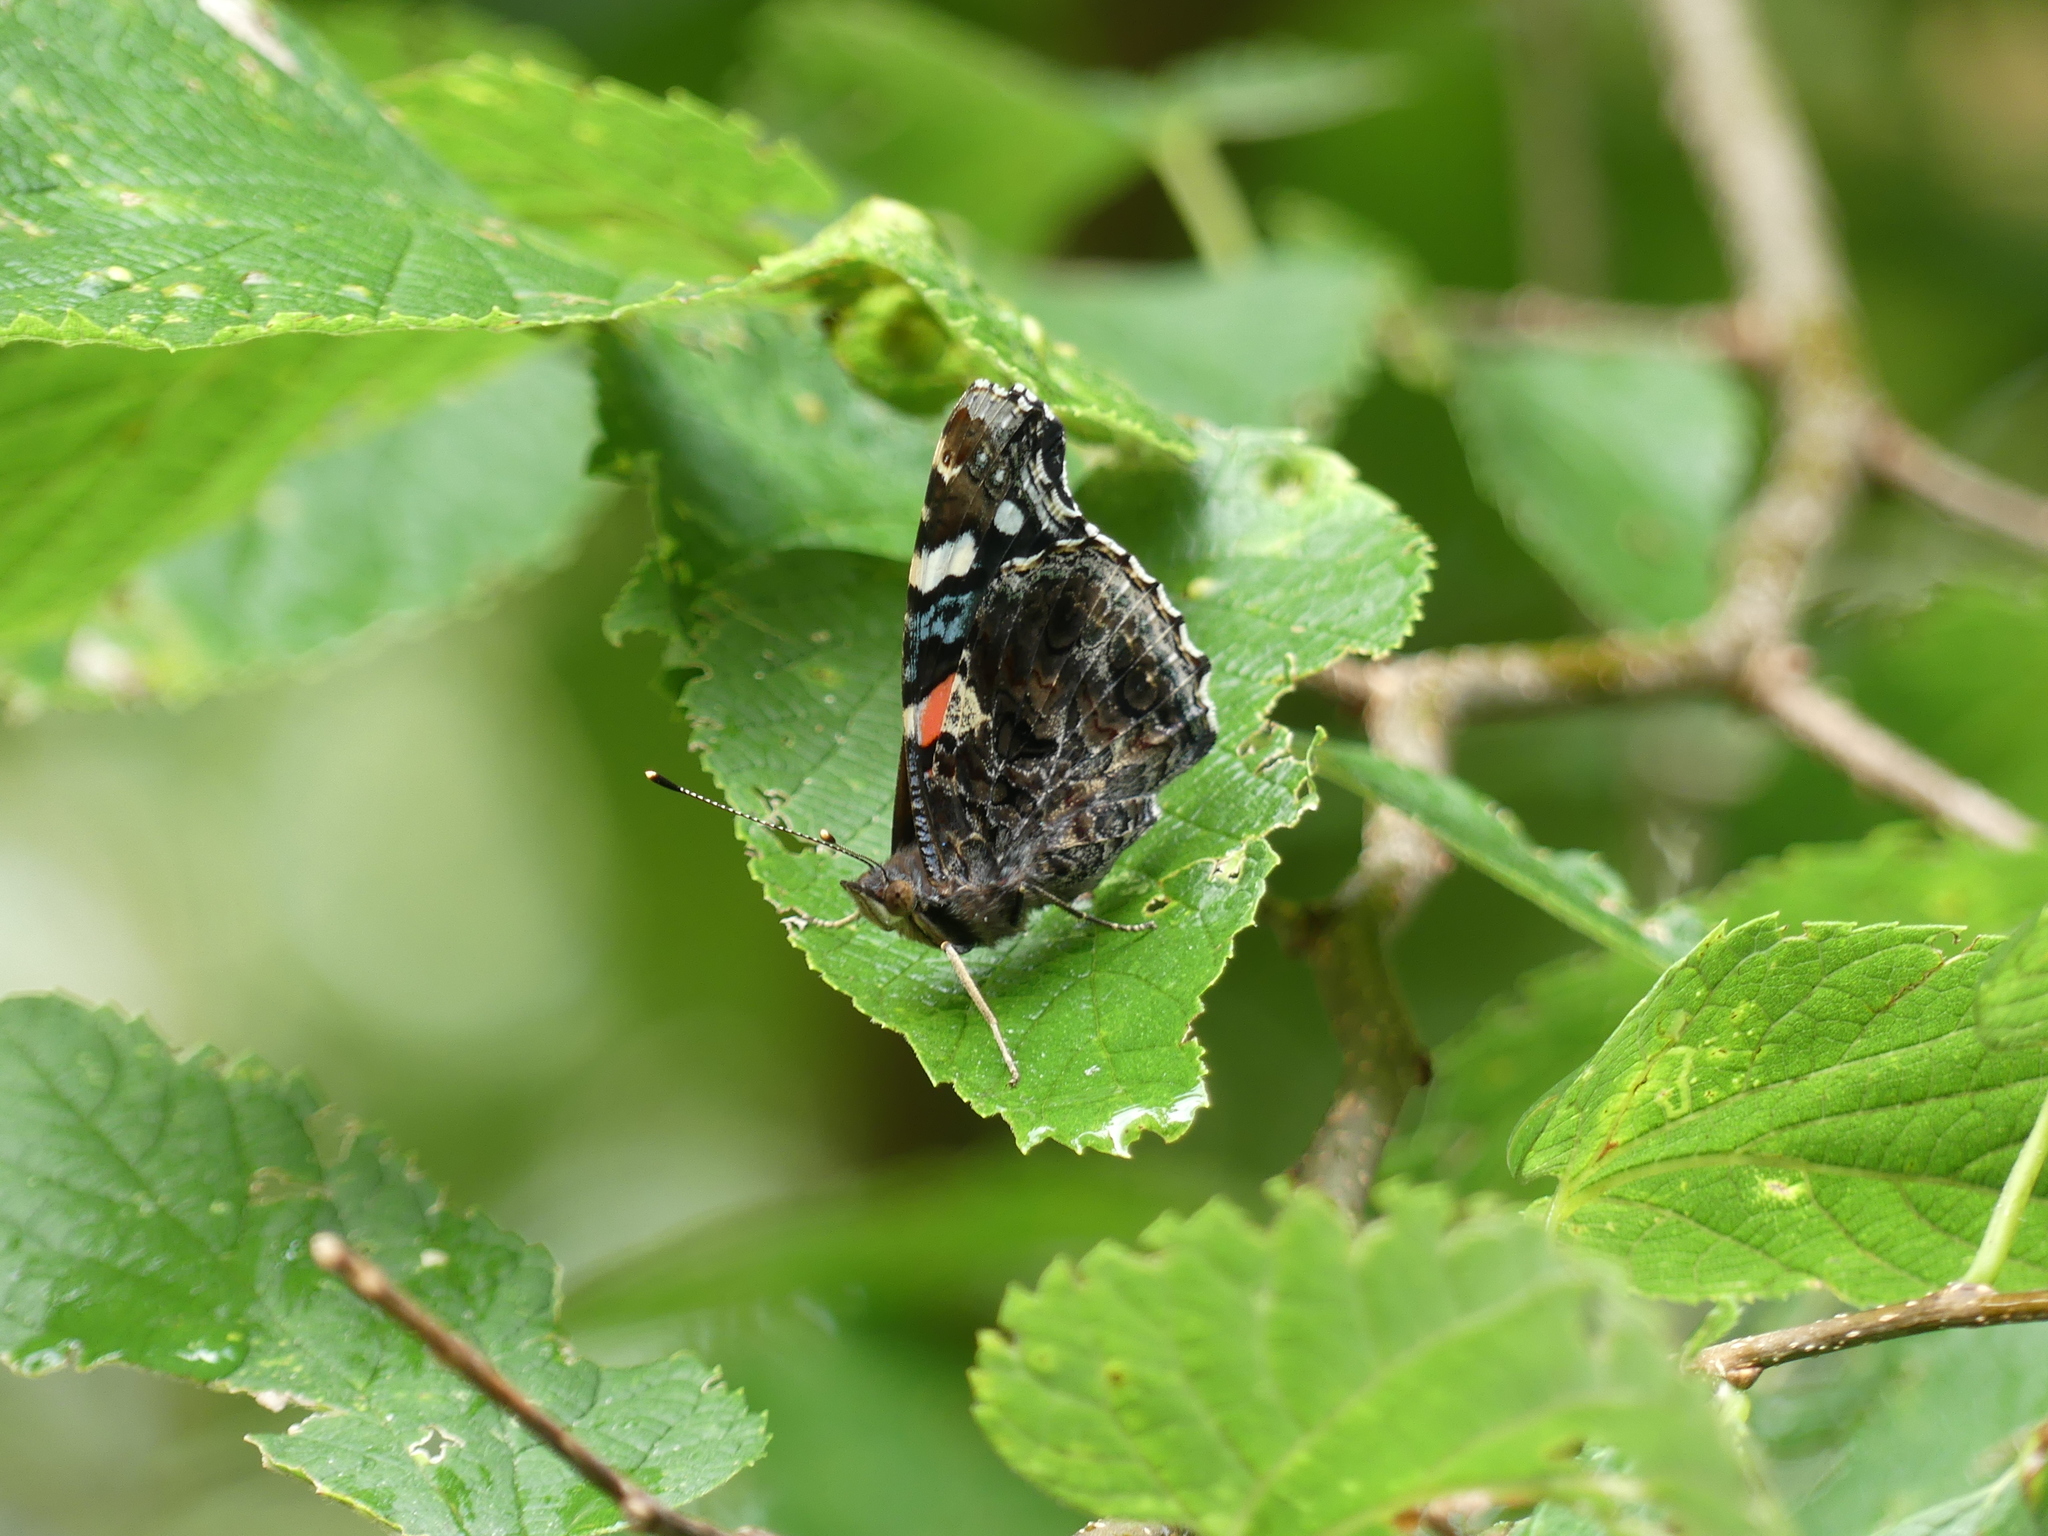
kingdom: Animalia
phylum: Arthropoda
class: Insecta
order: Lepidoptera
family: Nymphalidae
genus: Vanessa
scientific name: Vanessa atalanta
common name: Red admiral
